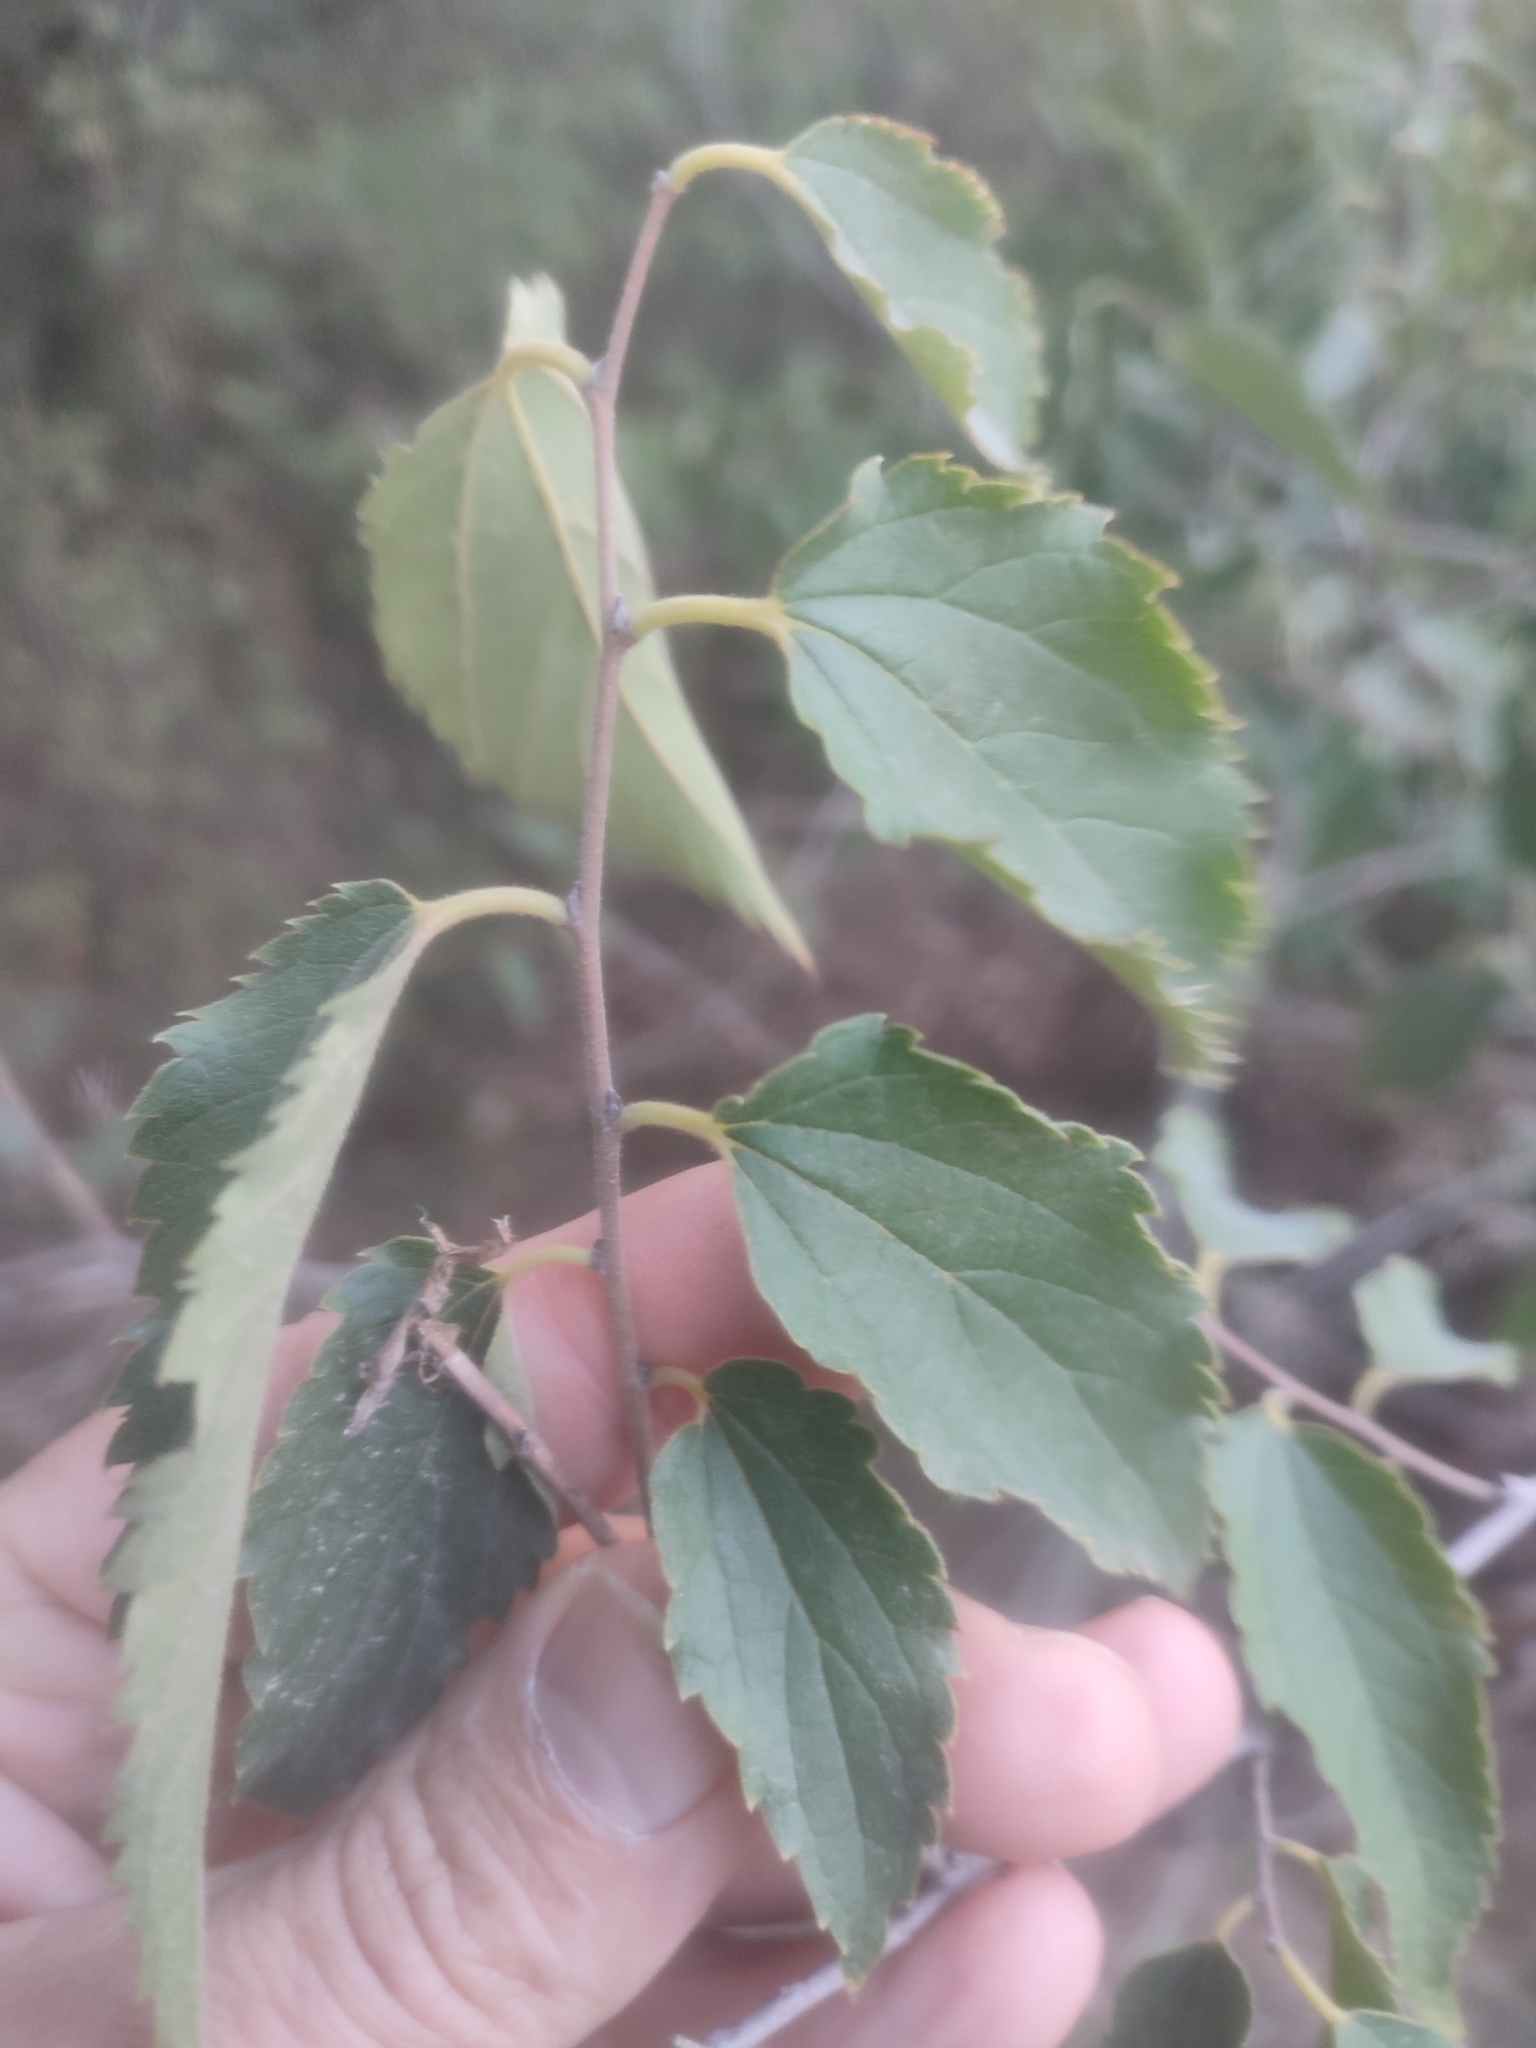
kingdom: Plantae
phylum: Tracheophyta
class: Magnoliopsida
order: Rosales
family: Cannabaceae
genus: Celtis
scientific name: Celtis australis
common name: European hackberry
